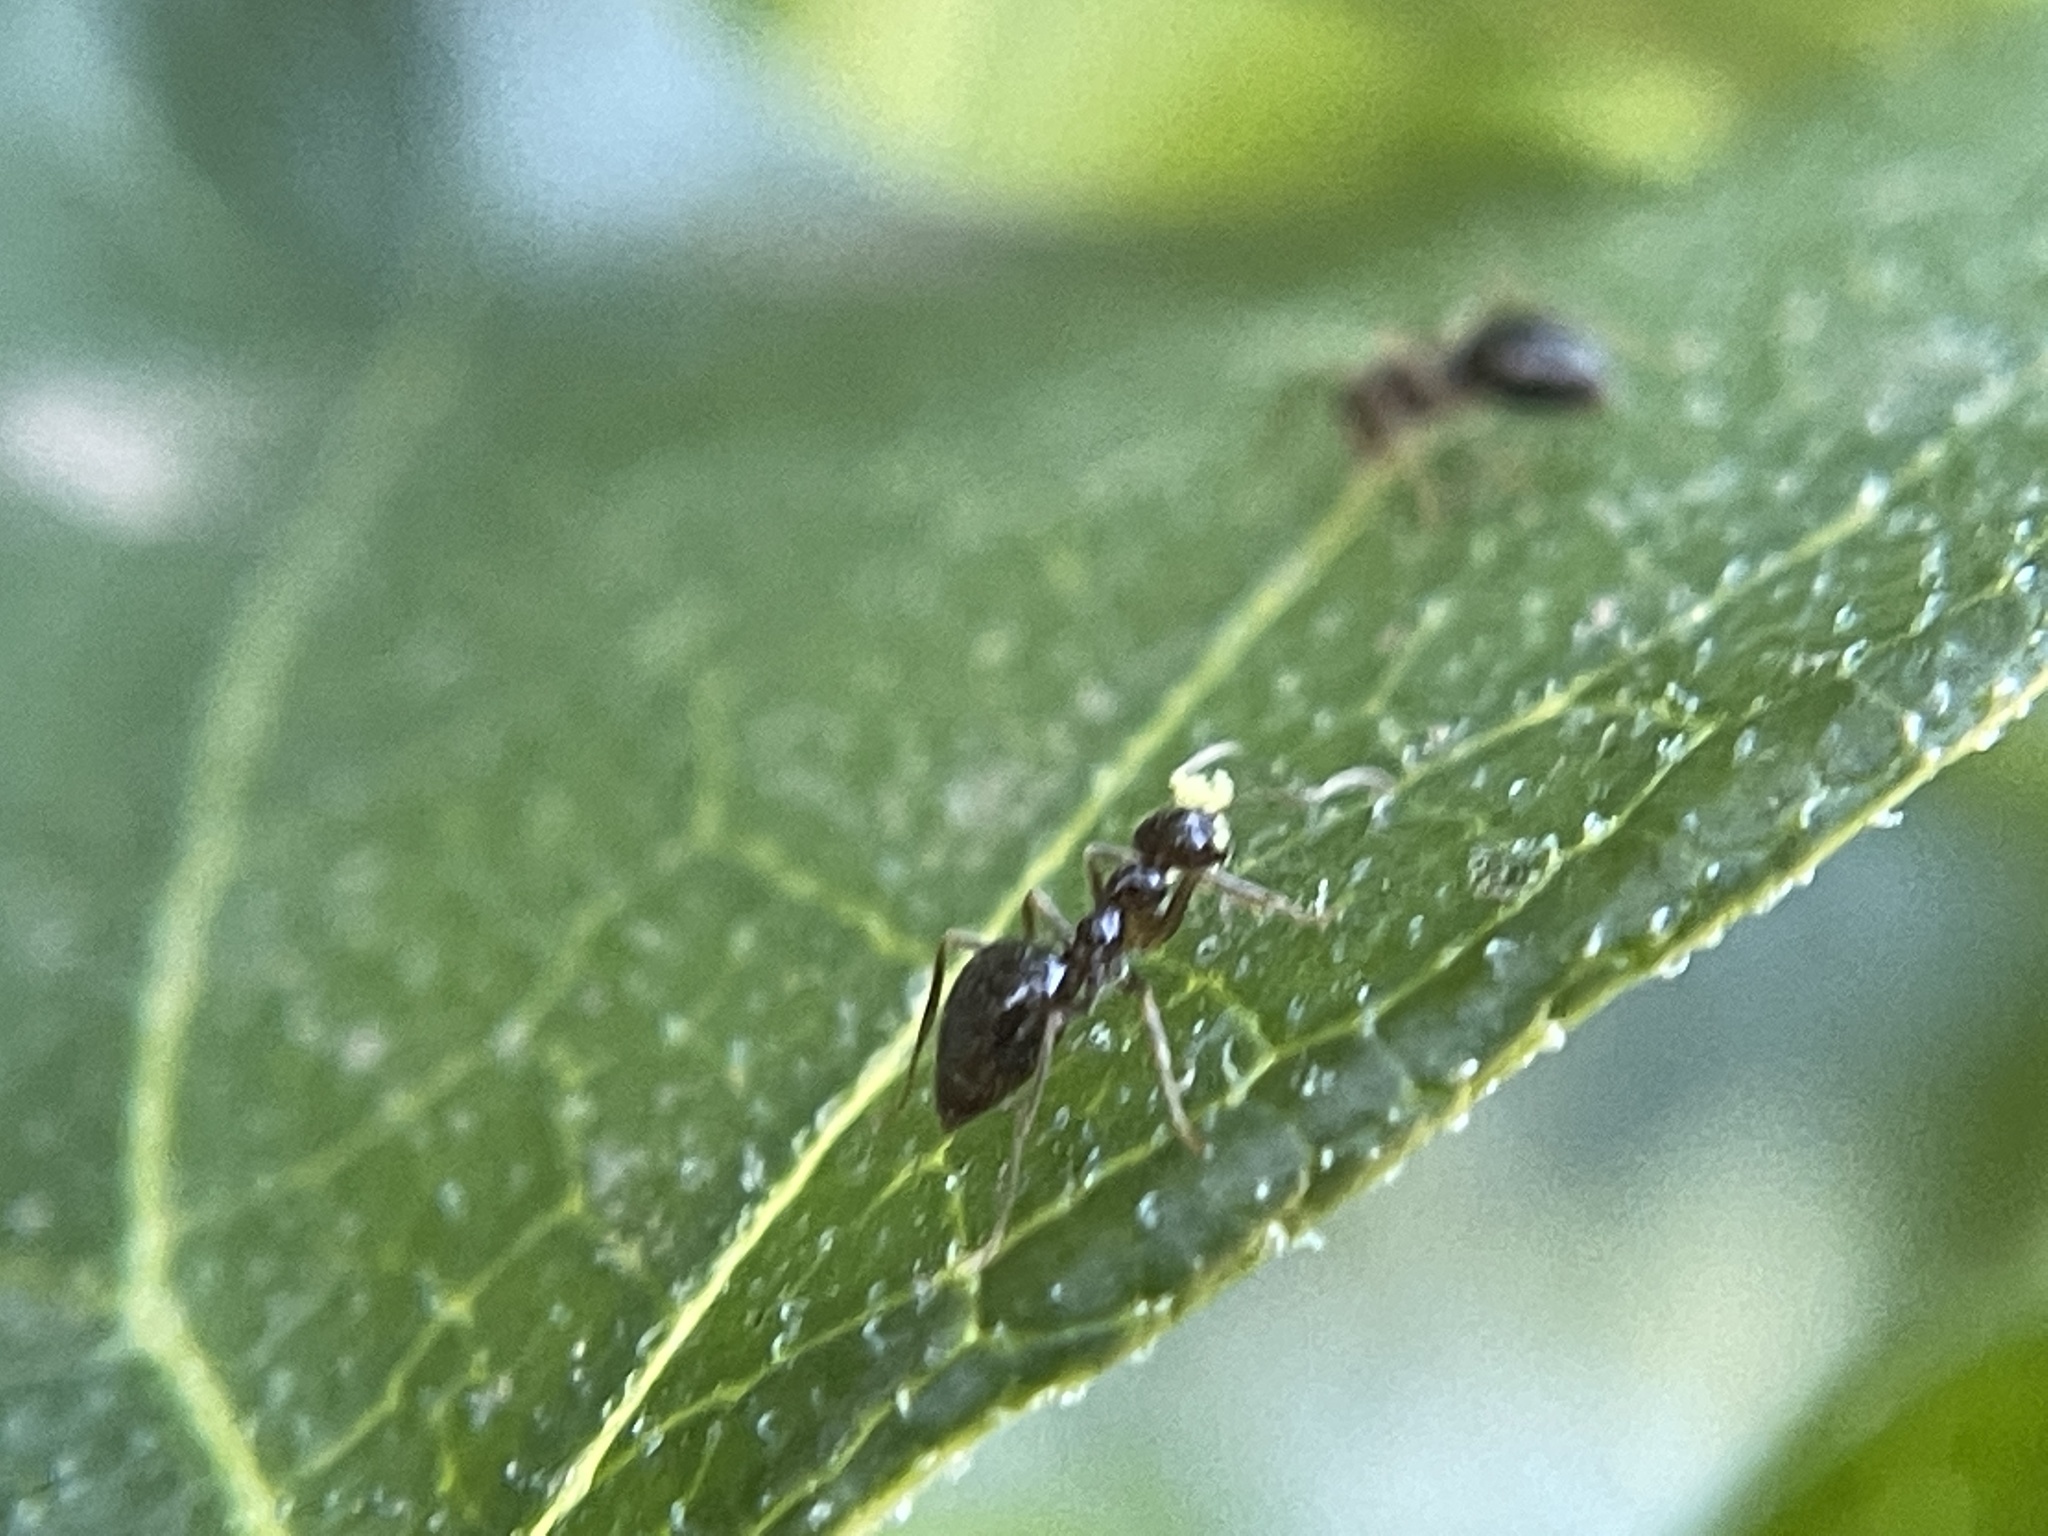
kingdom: Animalia
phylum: Arthropoda
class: Insecta
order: Hymenoptera
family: Formicidae
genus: Prenolepis
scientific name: Prenolepis imparis
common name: Small honey ant
